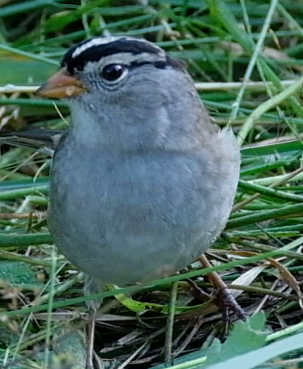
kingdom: Animalia
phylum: Chordata
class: Aves
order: Passeriformes
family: Passerellidae
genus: Zonotrichia
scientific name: Zonotrichia leucophrys
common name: White-crowned sparrow
